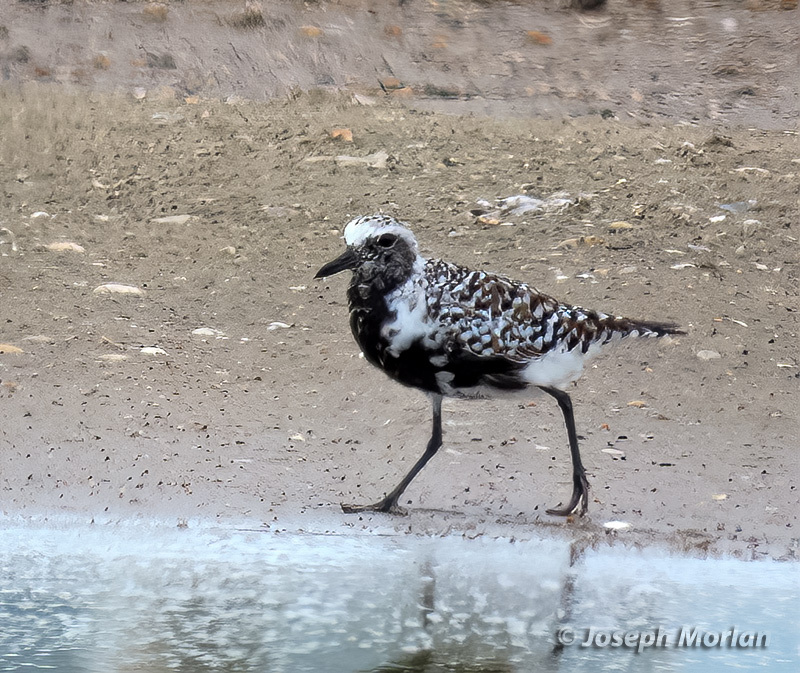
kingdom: Animalia
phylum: Chordata
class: Aves
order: Charadriiformes
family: Charadriidae
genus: Pluvialis
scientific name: Pluvialis squatarola
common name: Grey plover
